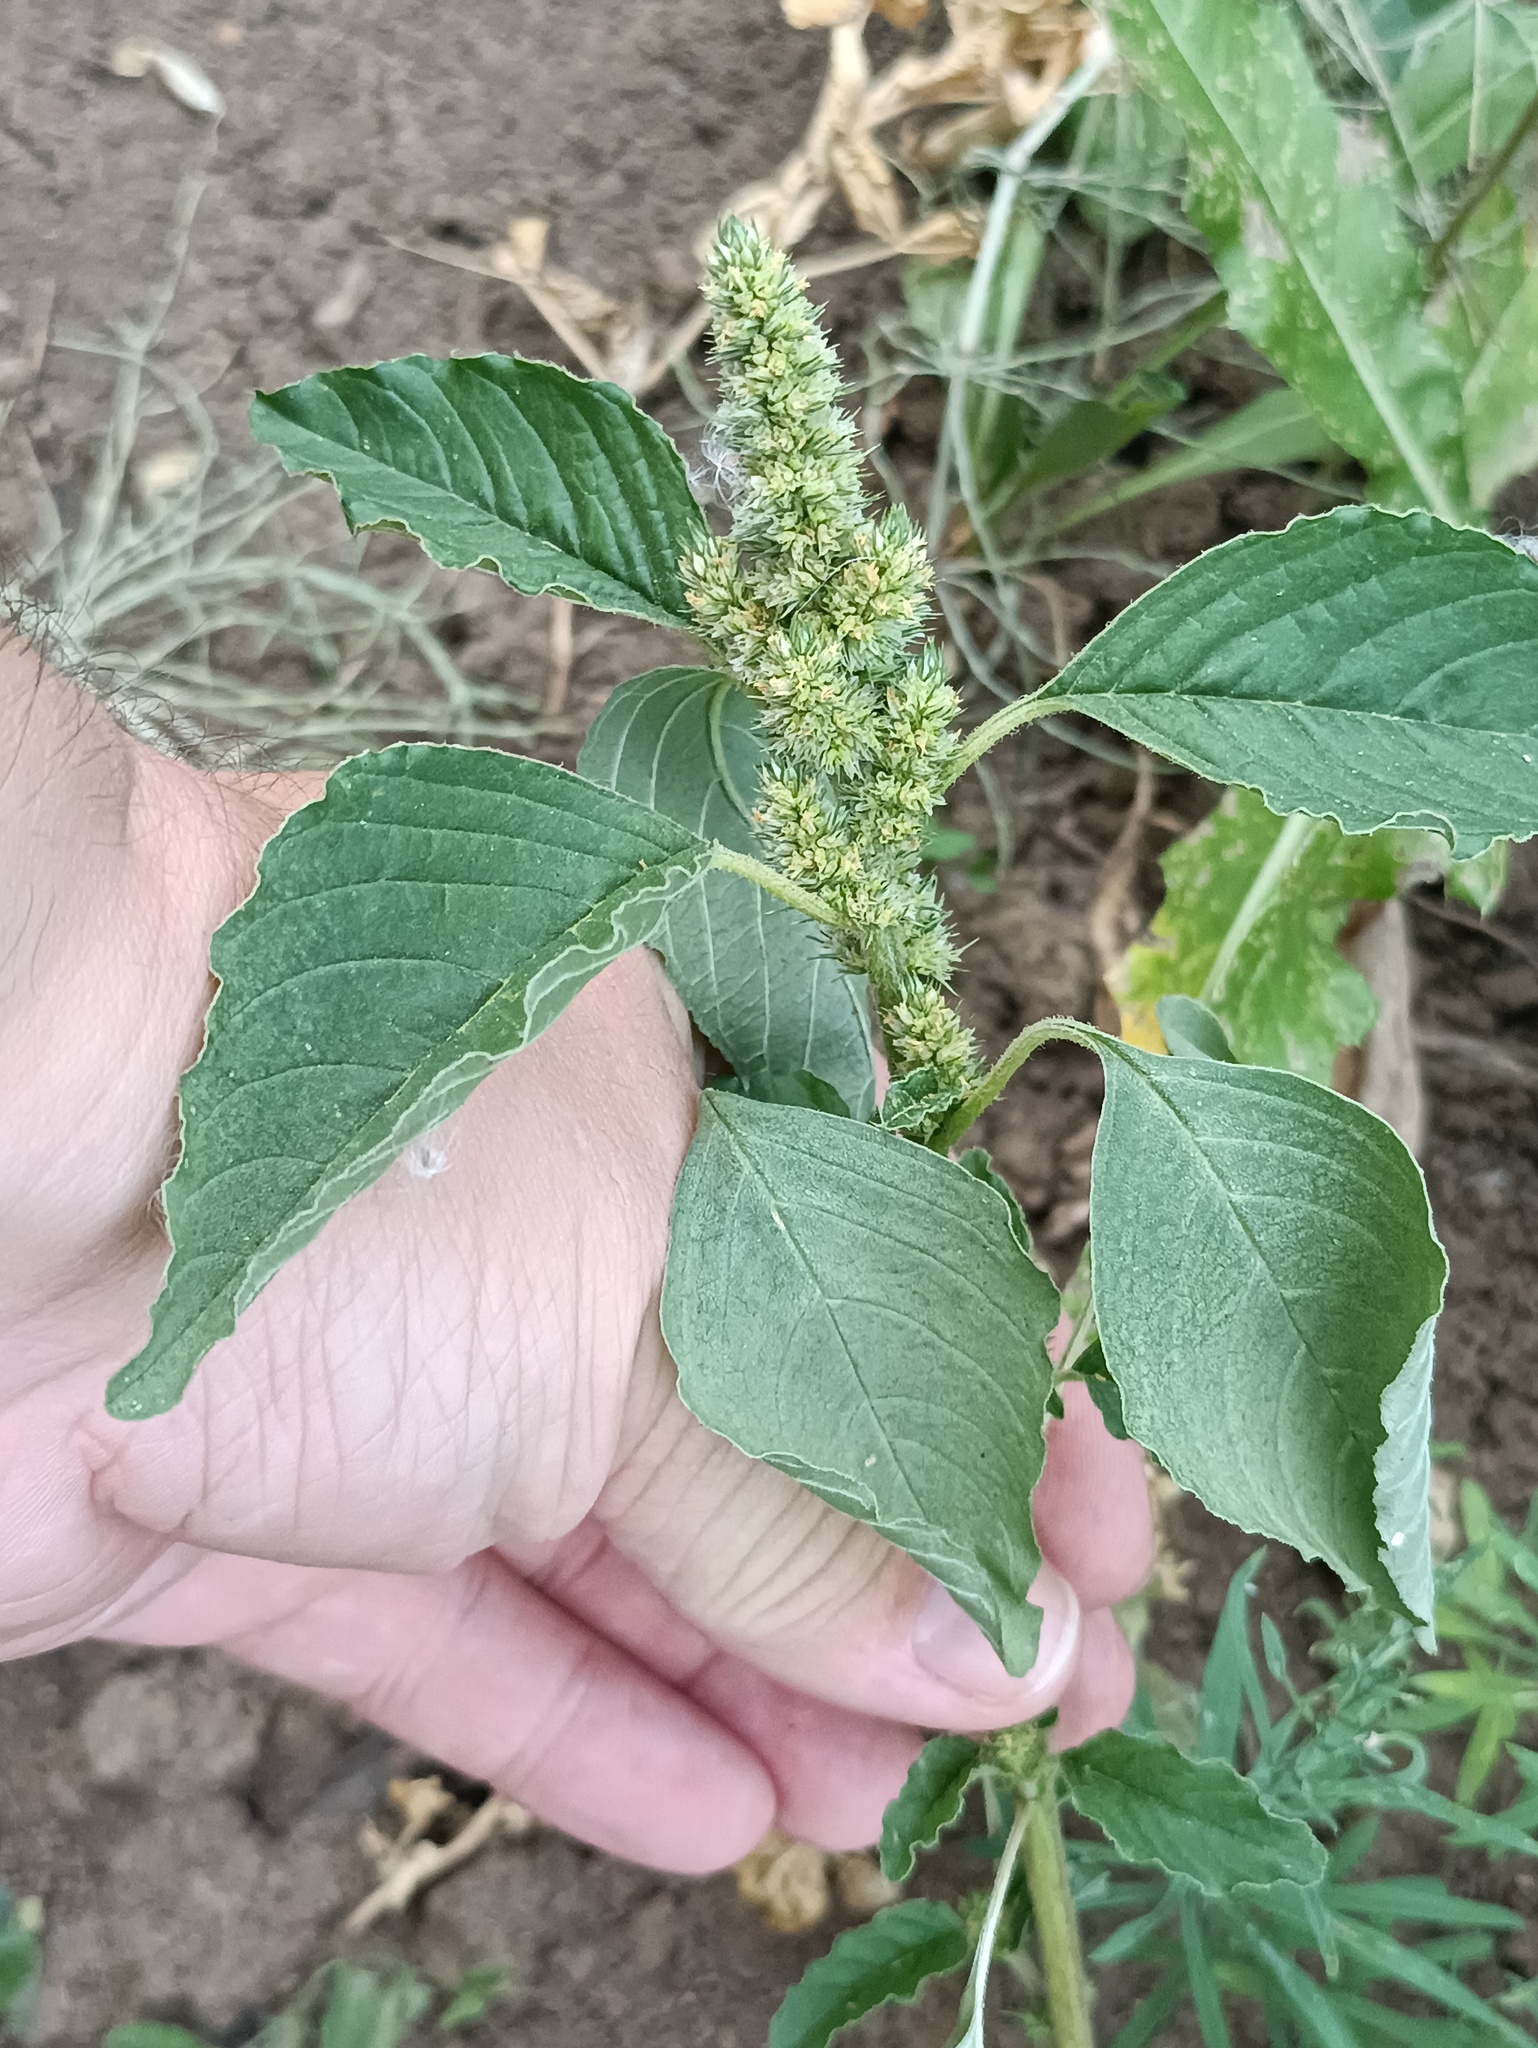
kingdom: Plantae
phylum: Tracheophyta
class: Magnoliopsida
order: Caryophyllales
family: Amaranthaceae
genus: Amaranthus
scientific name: Amaranthus retroflexus
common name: Redroot amaranth
